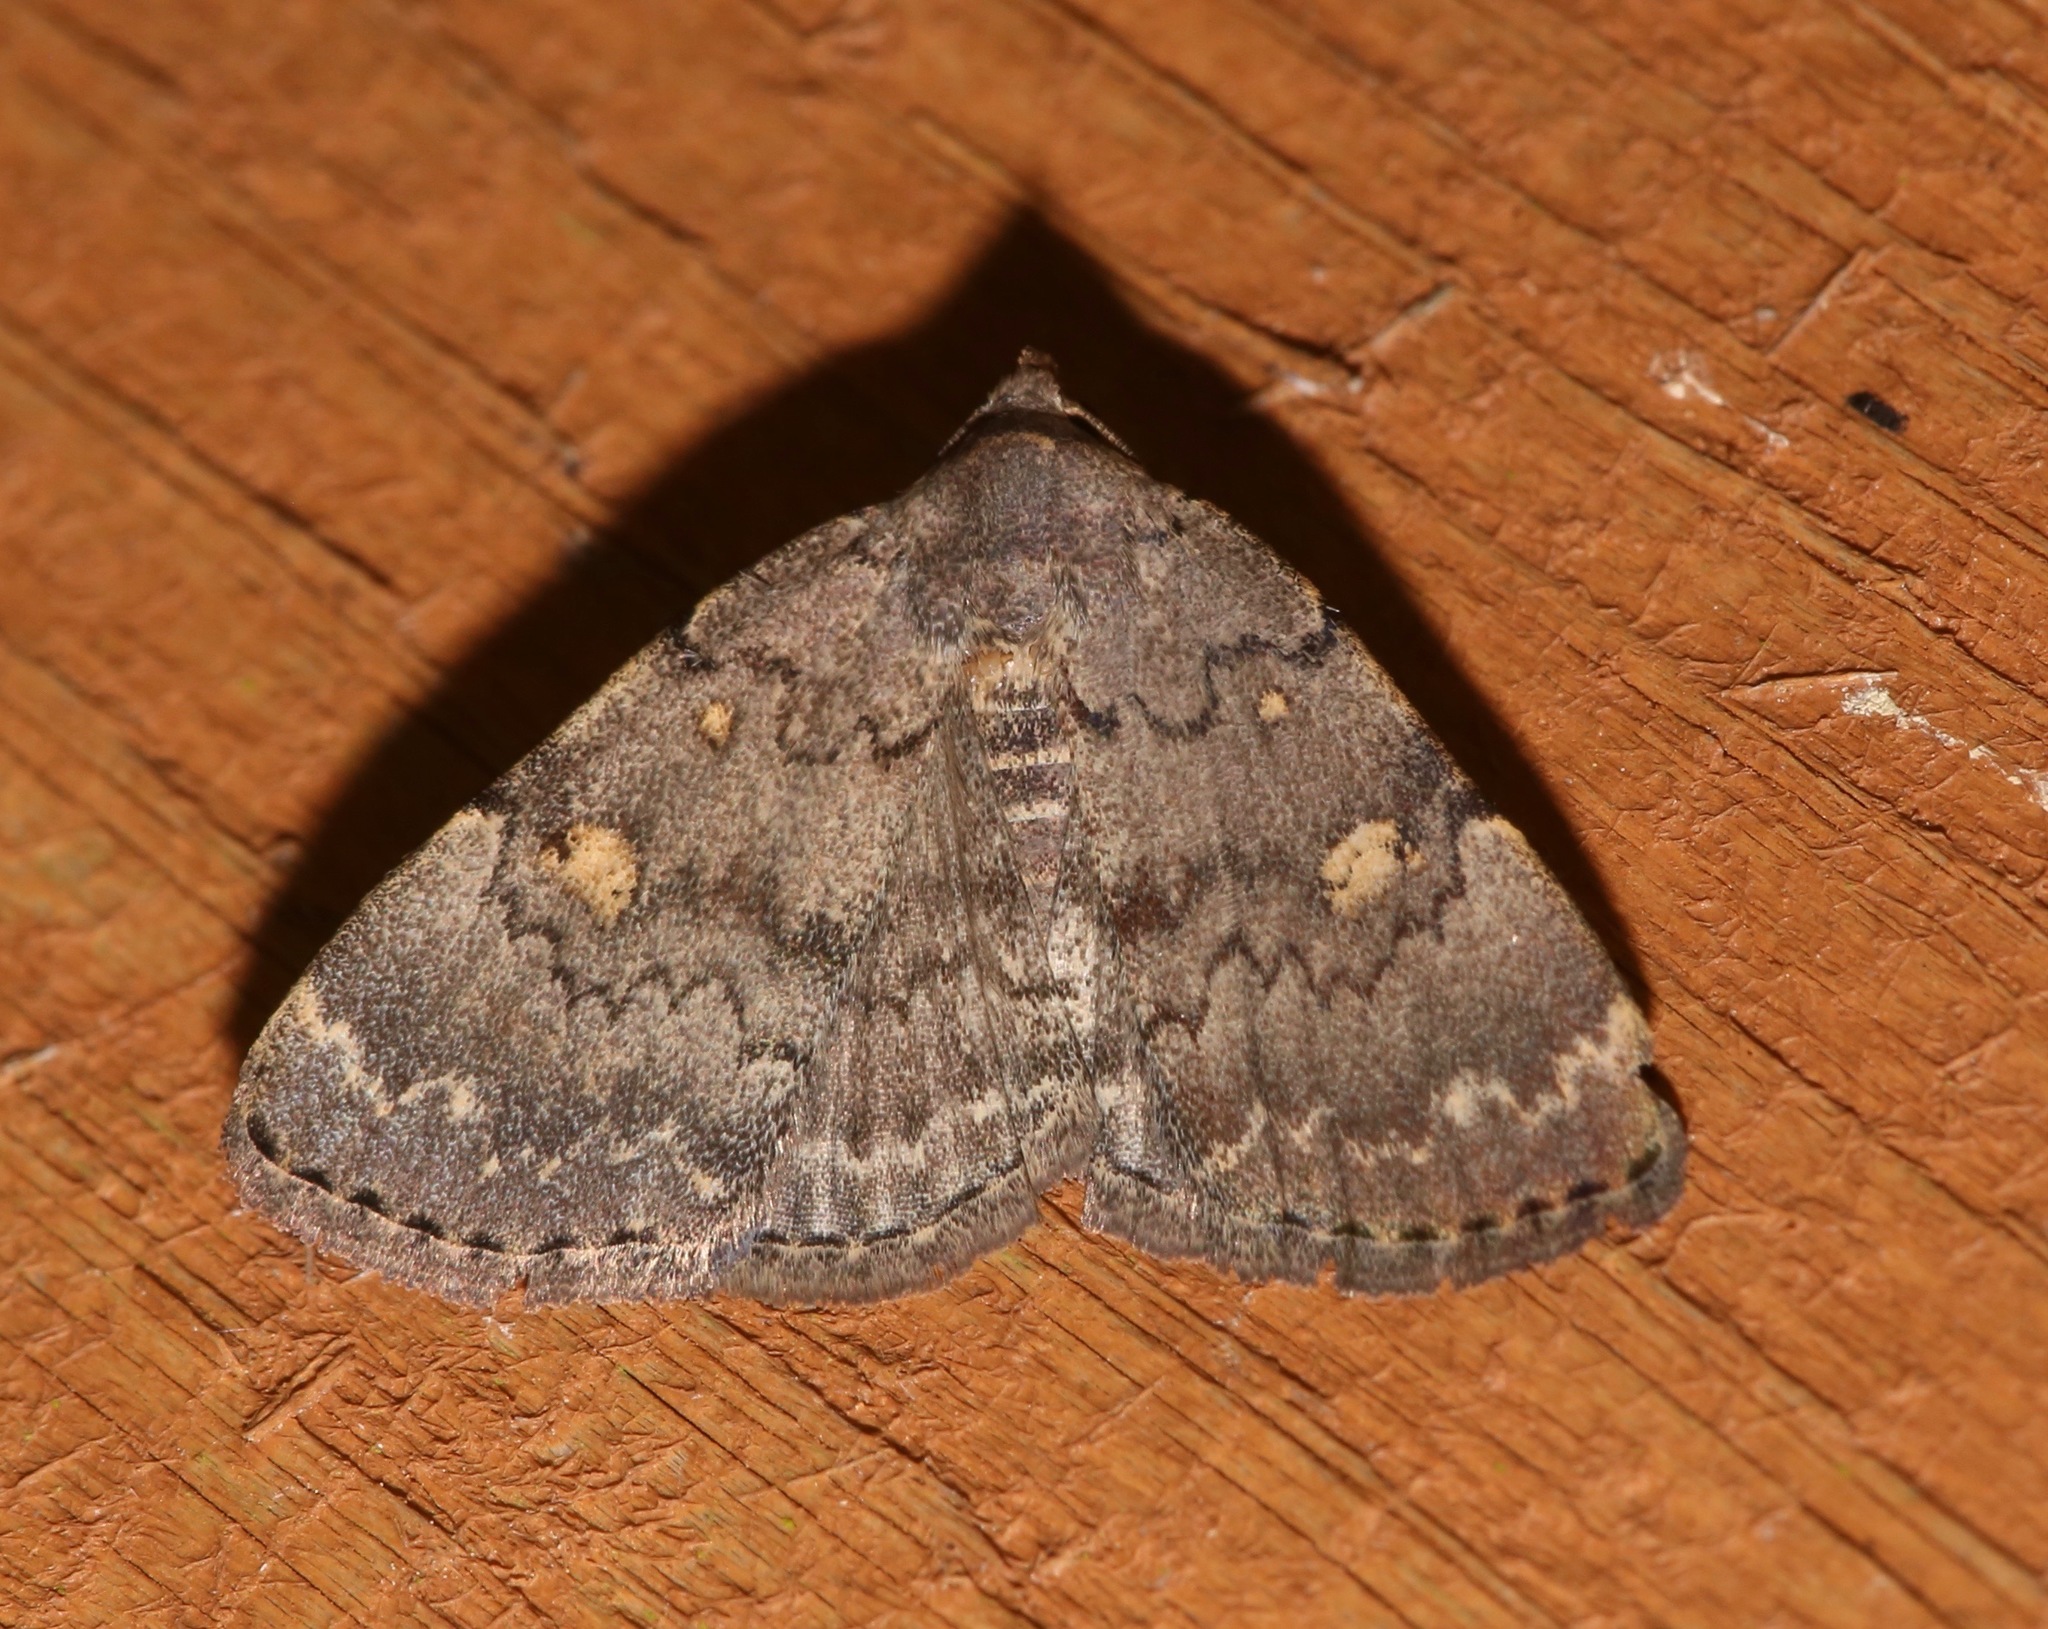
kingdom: Animalia
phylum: Arthropoda
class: Insecta
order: Lepidoptera
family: Erebidae
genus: Idia
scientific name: Idia aemula
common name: Common idia moth
